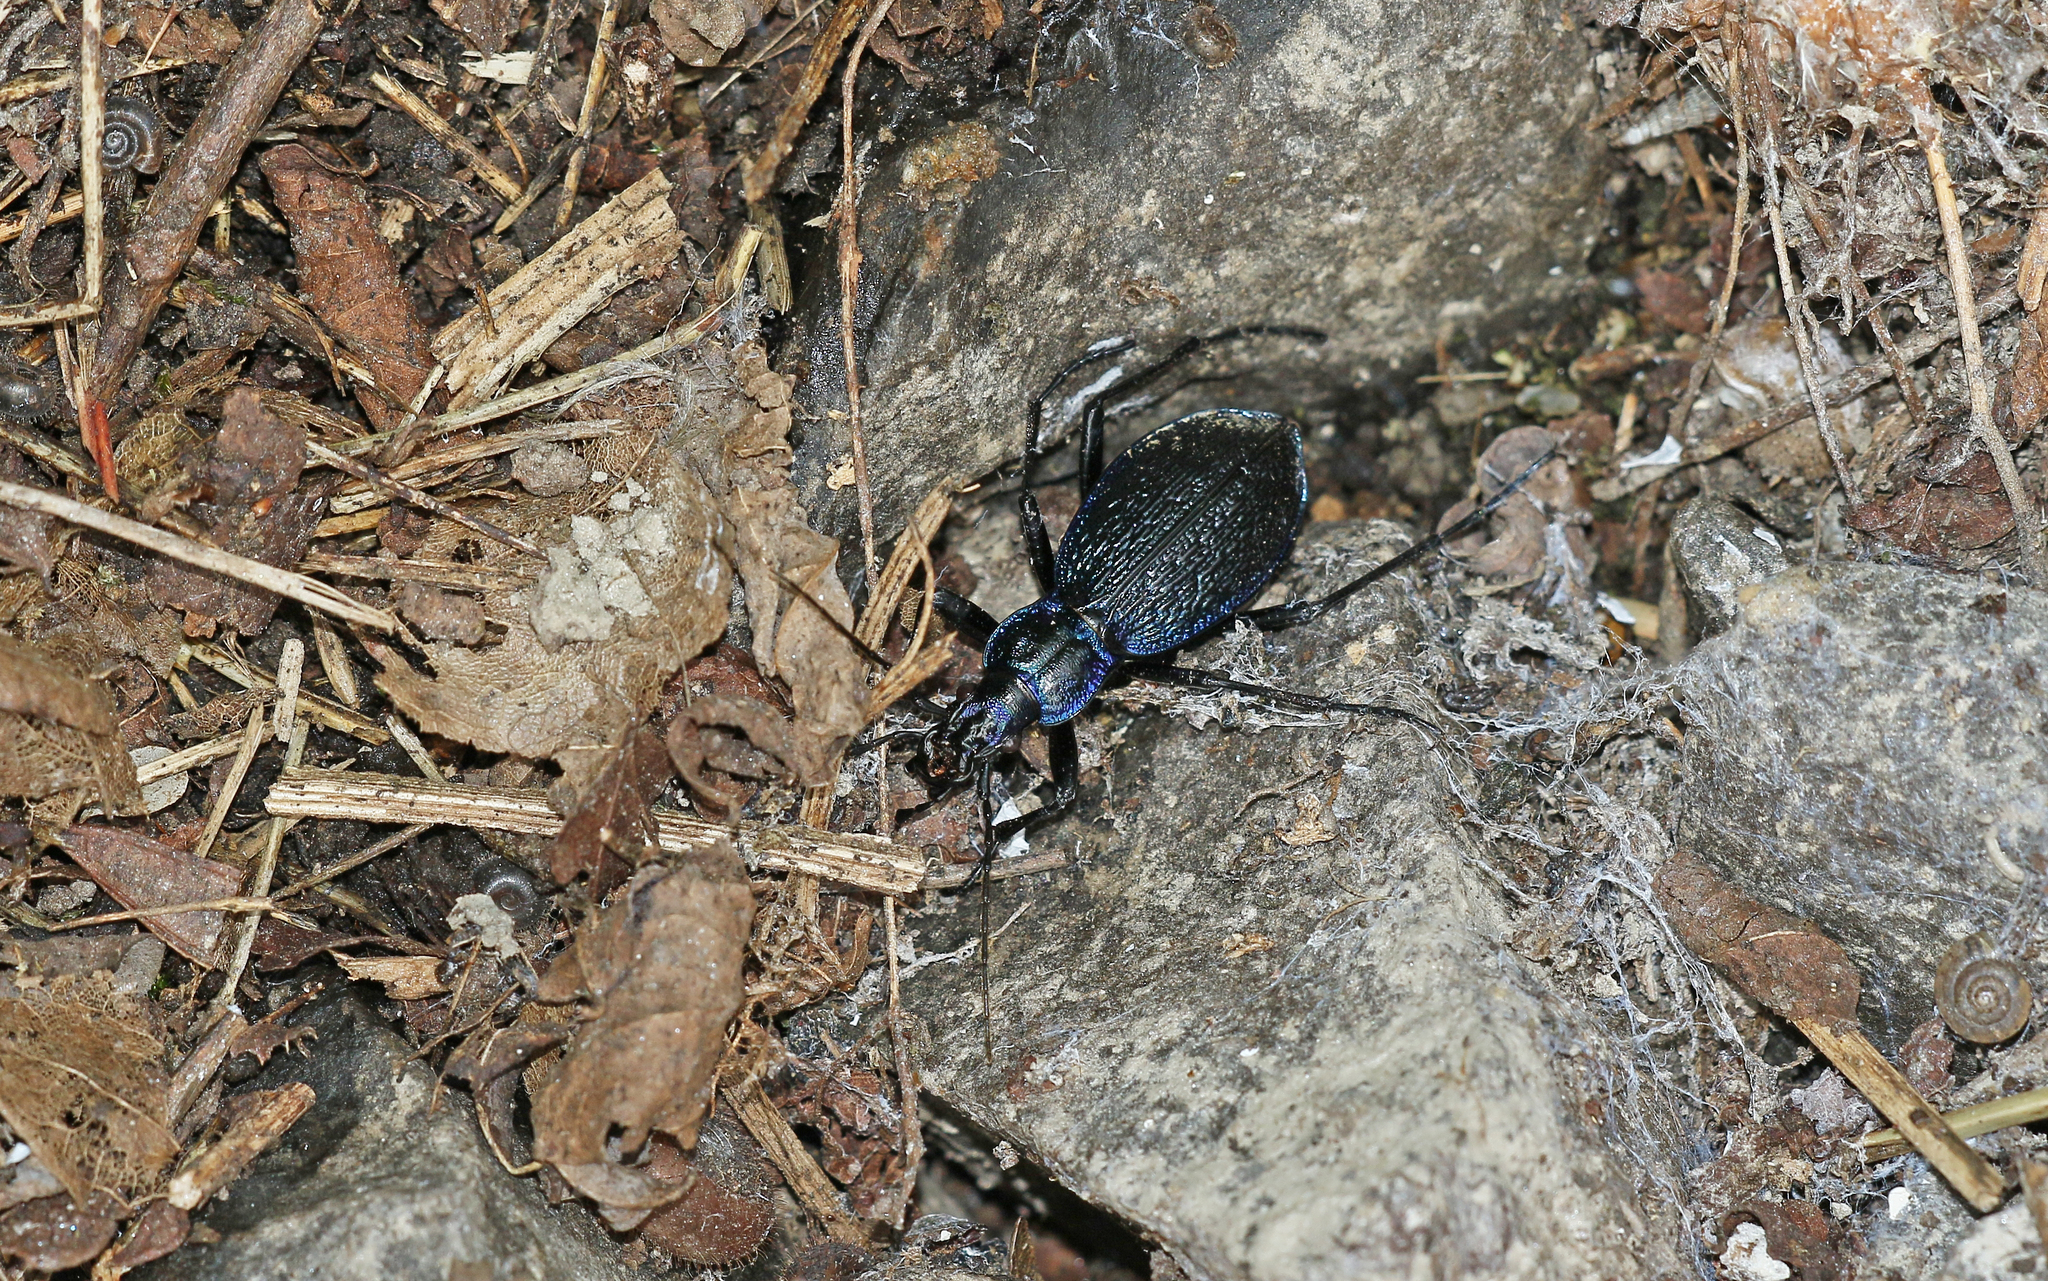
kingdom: Animalia
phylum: Arthropoda
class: Insecta
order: Coleoptera
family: Carabidae
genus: Carabus
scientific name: Carabus intricatus
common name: Blue ground beetle
